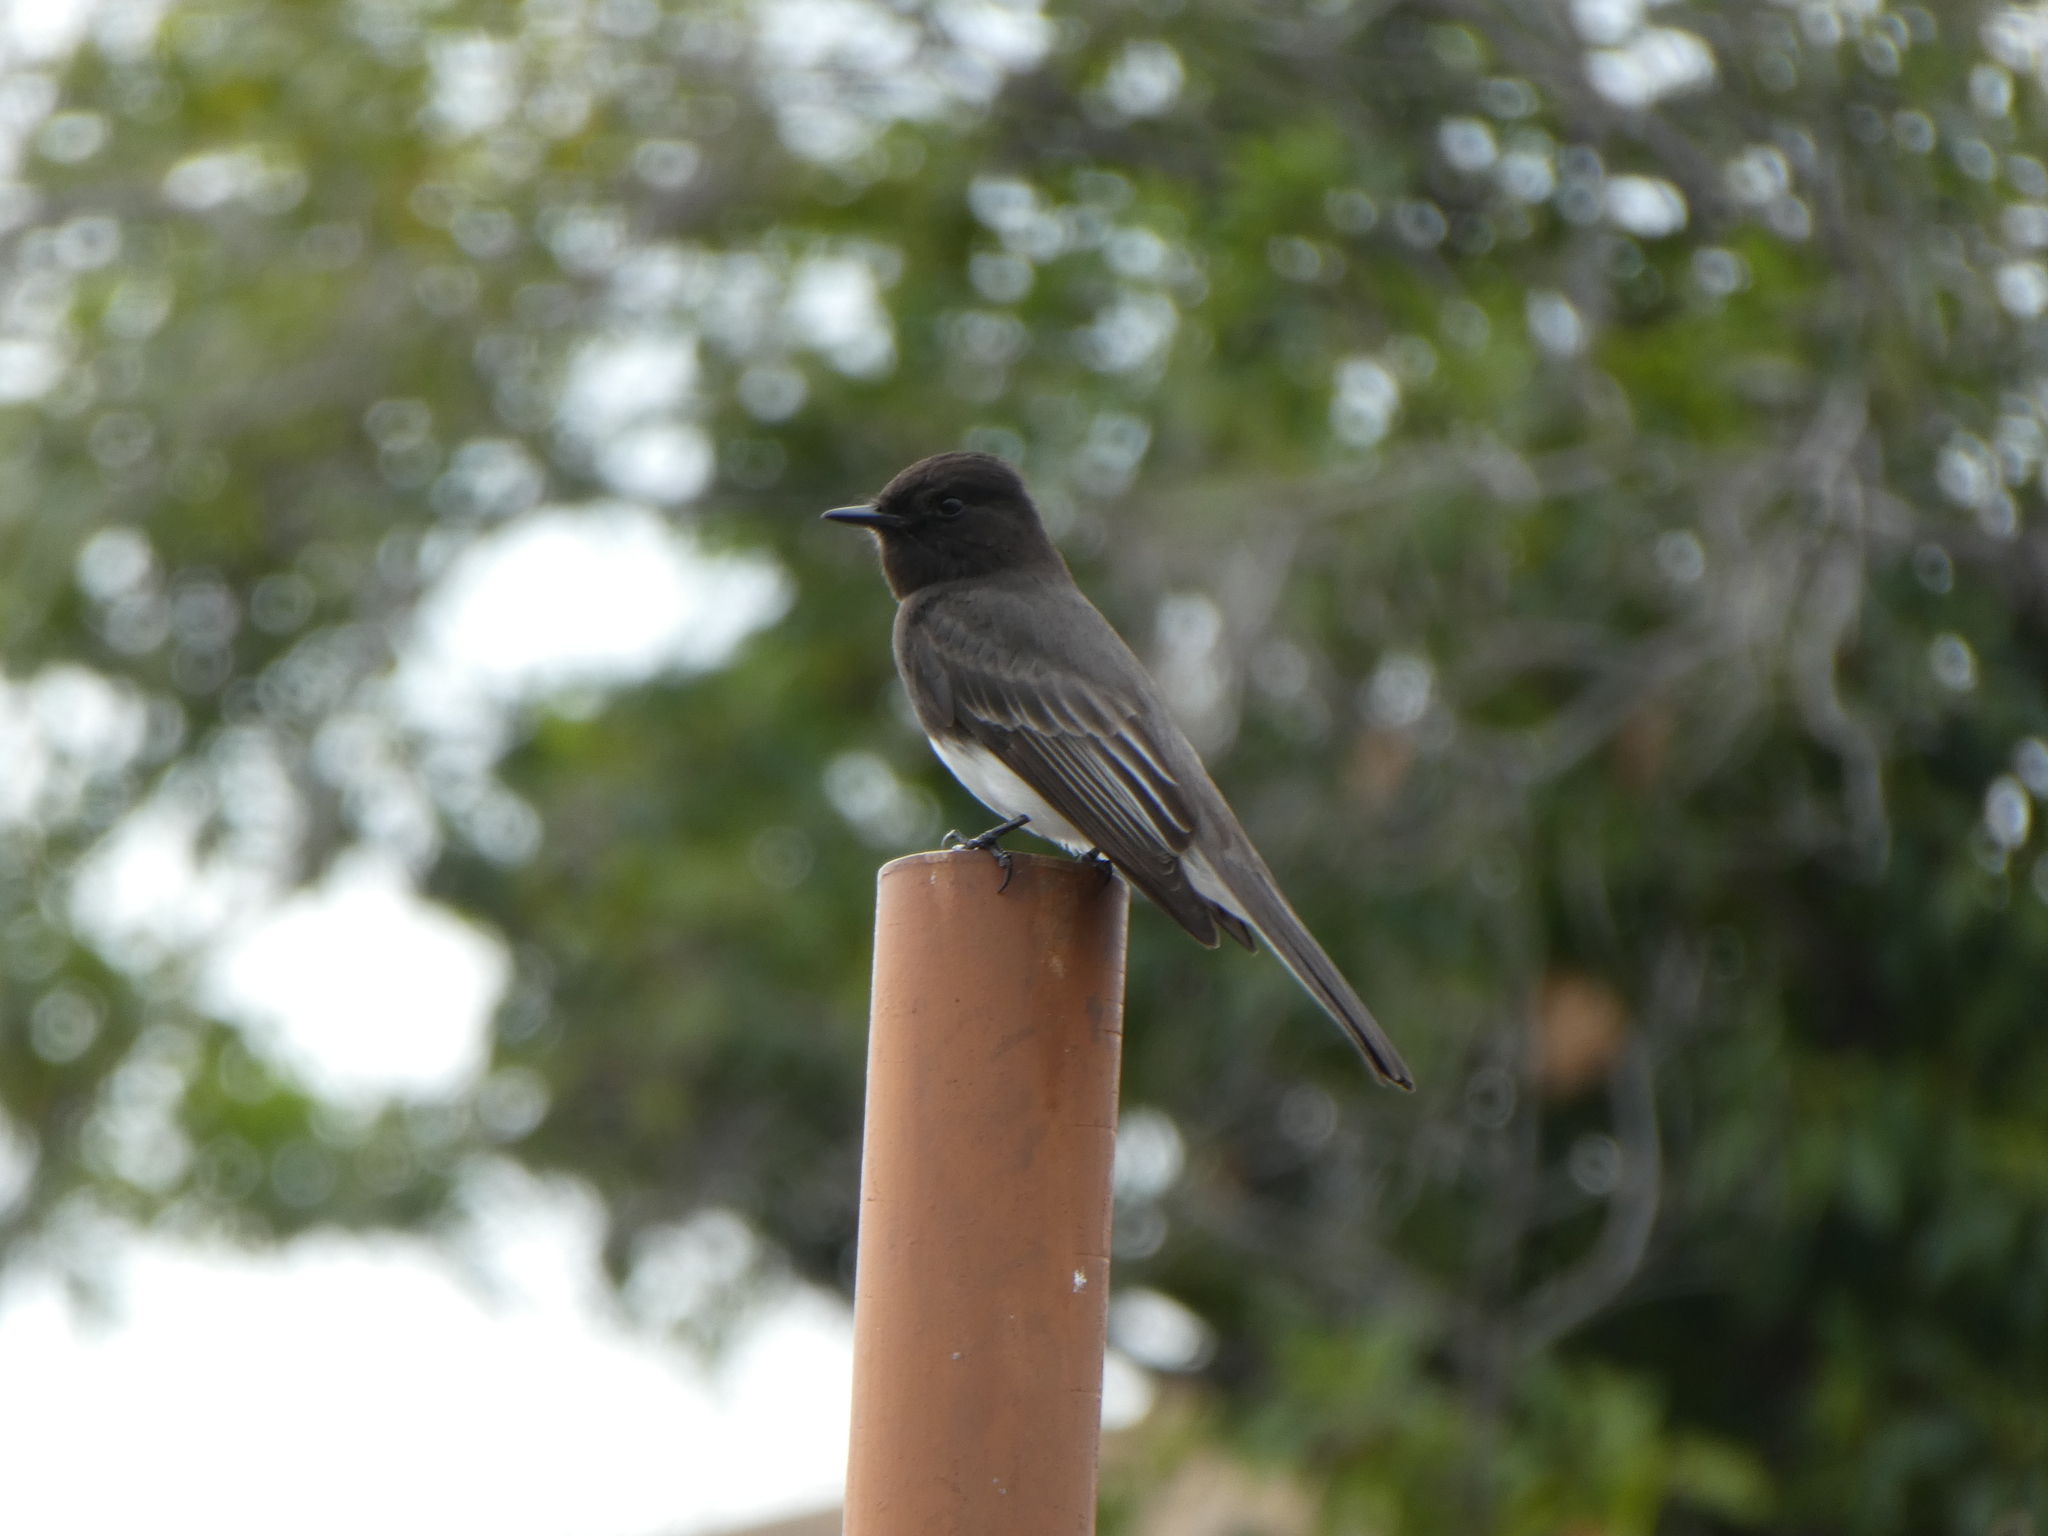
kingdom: Animalia
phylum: Chordata
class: Aves
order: Passeriformes
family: Tyrannidae
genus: Sayornis
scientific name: Sayornis nigricans
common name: Black phoebe
